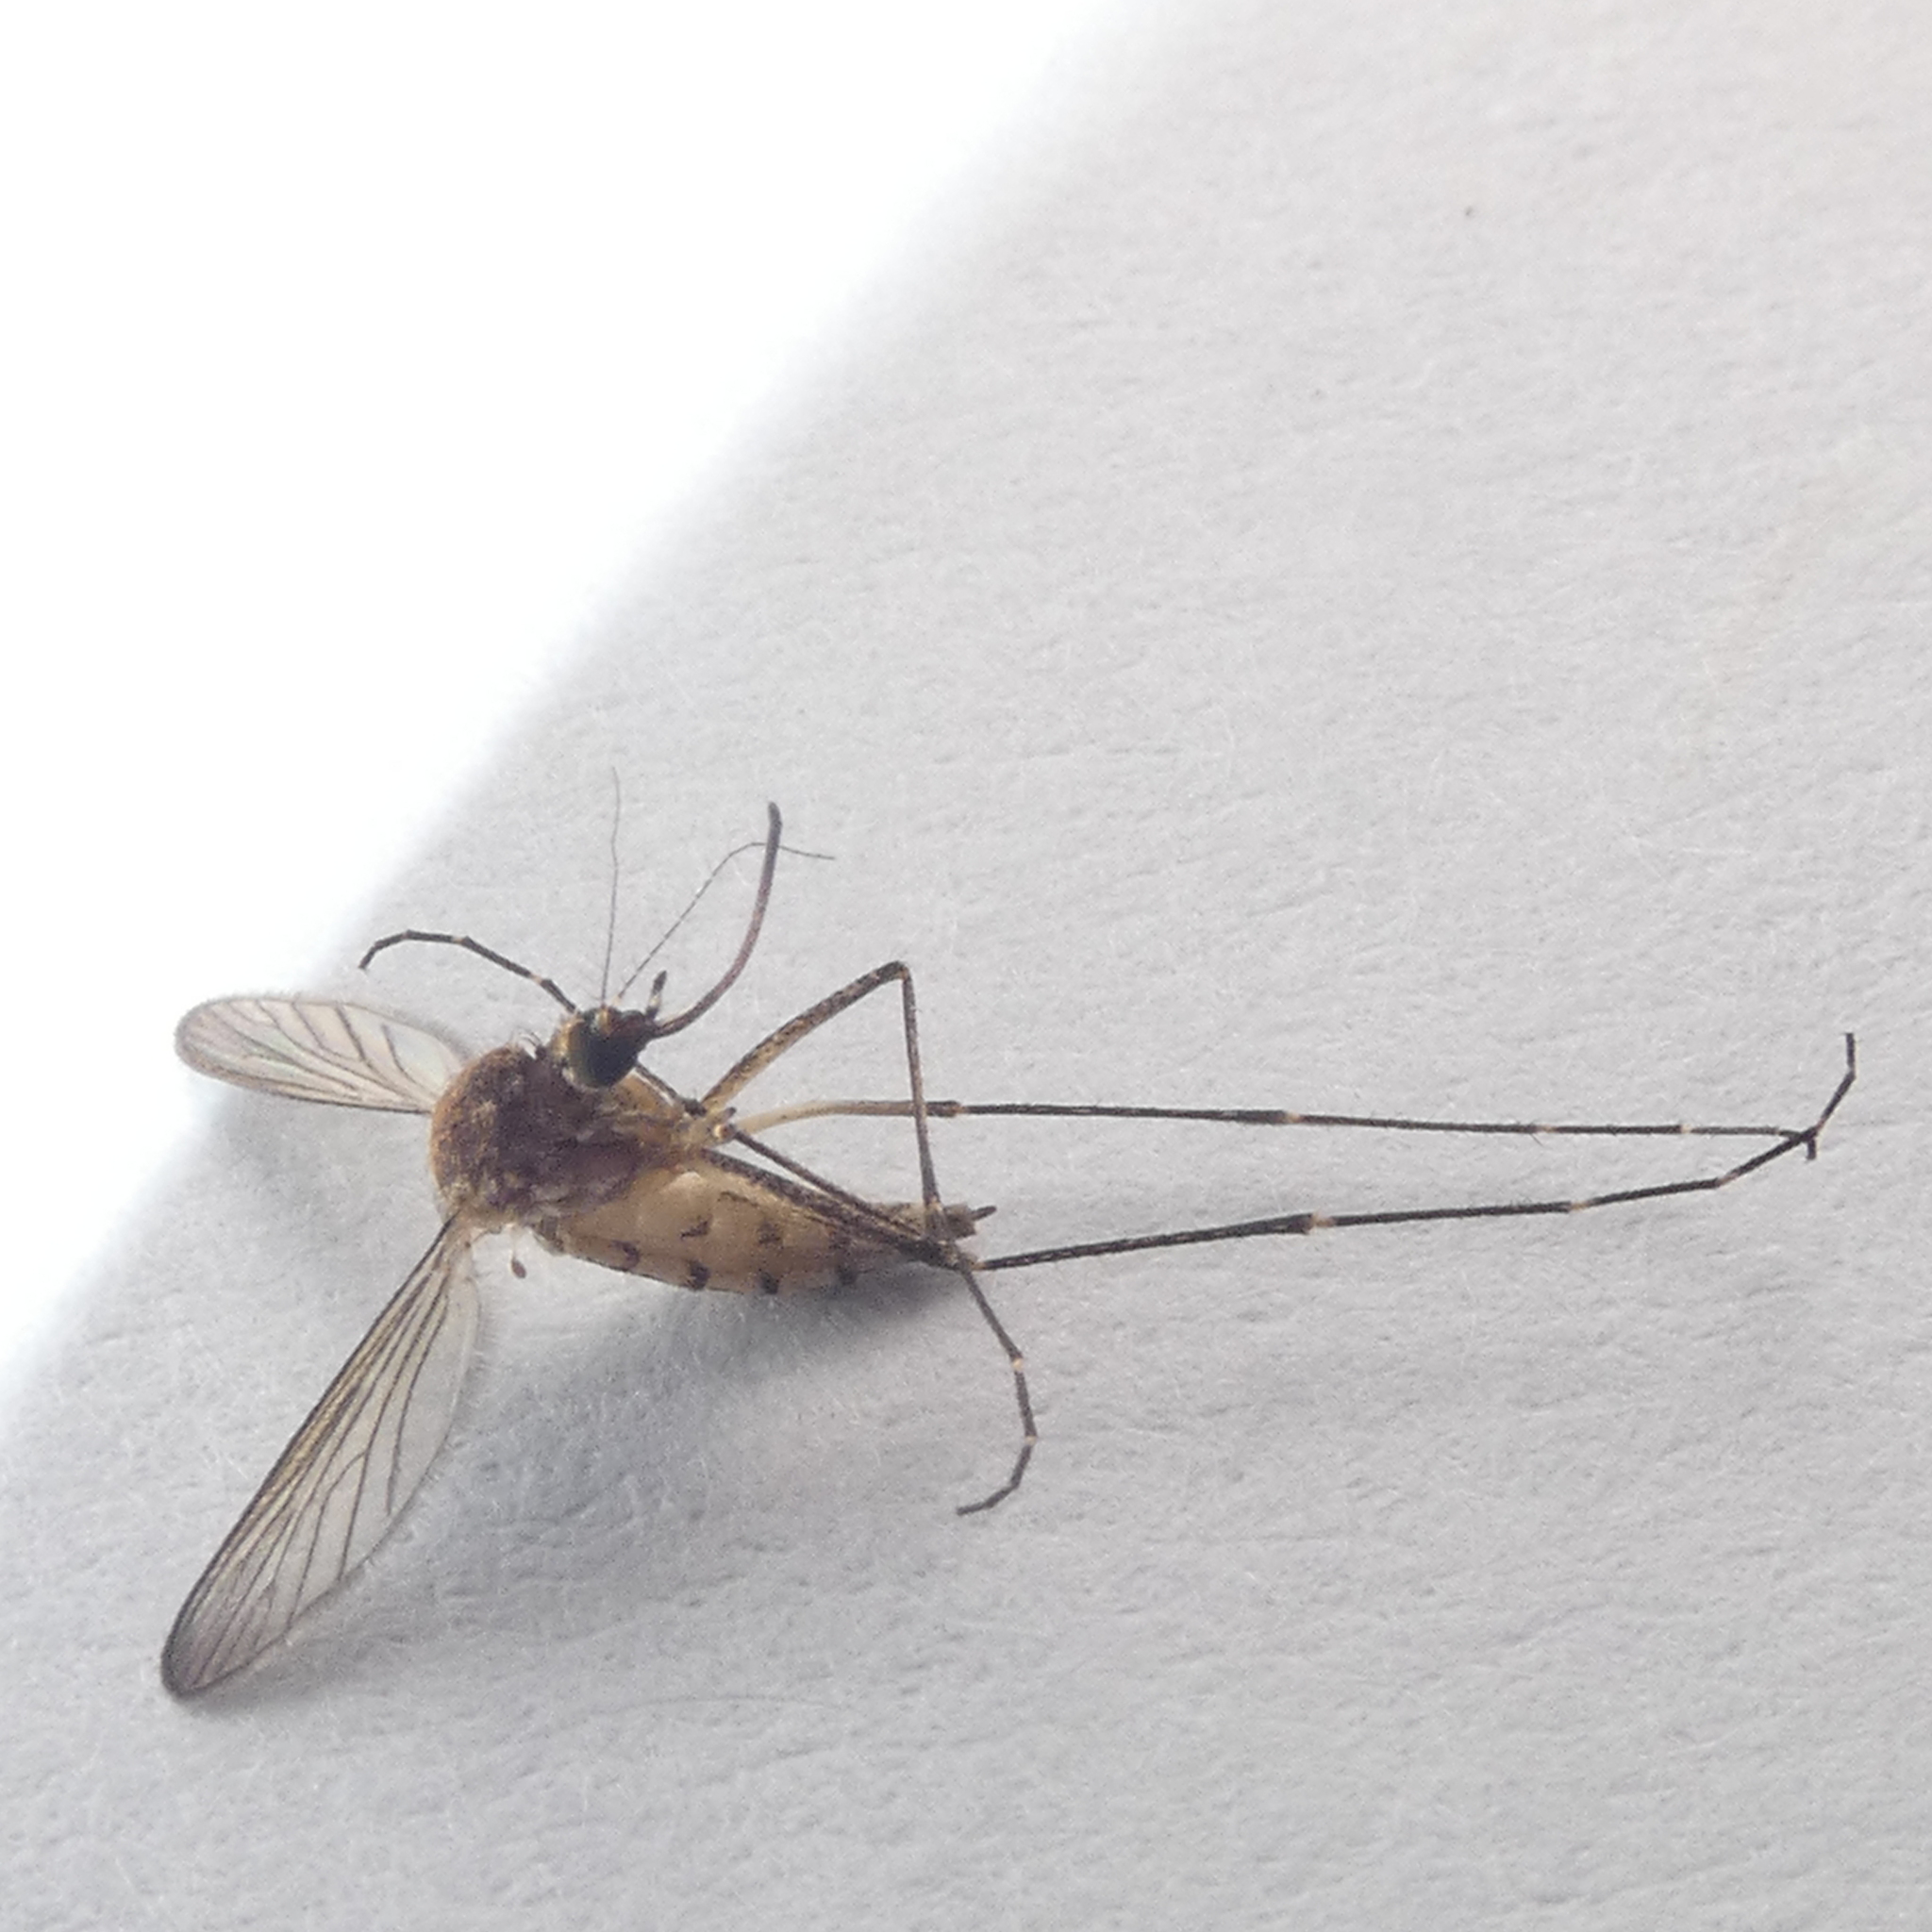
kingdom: Animalia
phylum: Arthropoda
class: Insecta
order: Diptera
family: Culicidae
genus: Aedes
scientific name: Aedes vexans
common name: Inland floodwater mosquito
